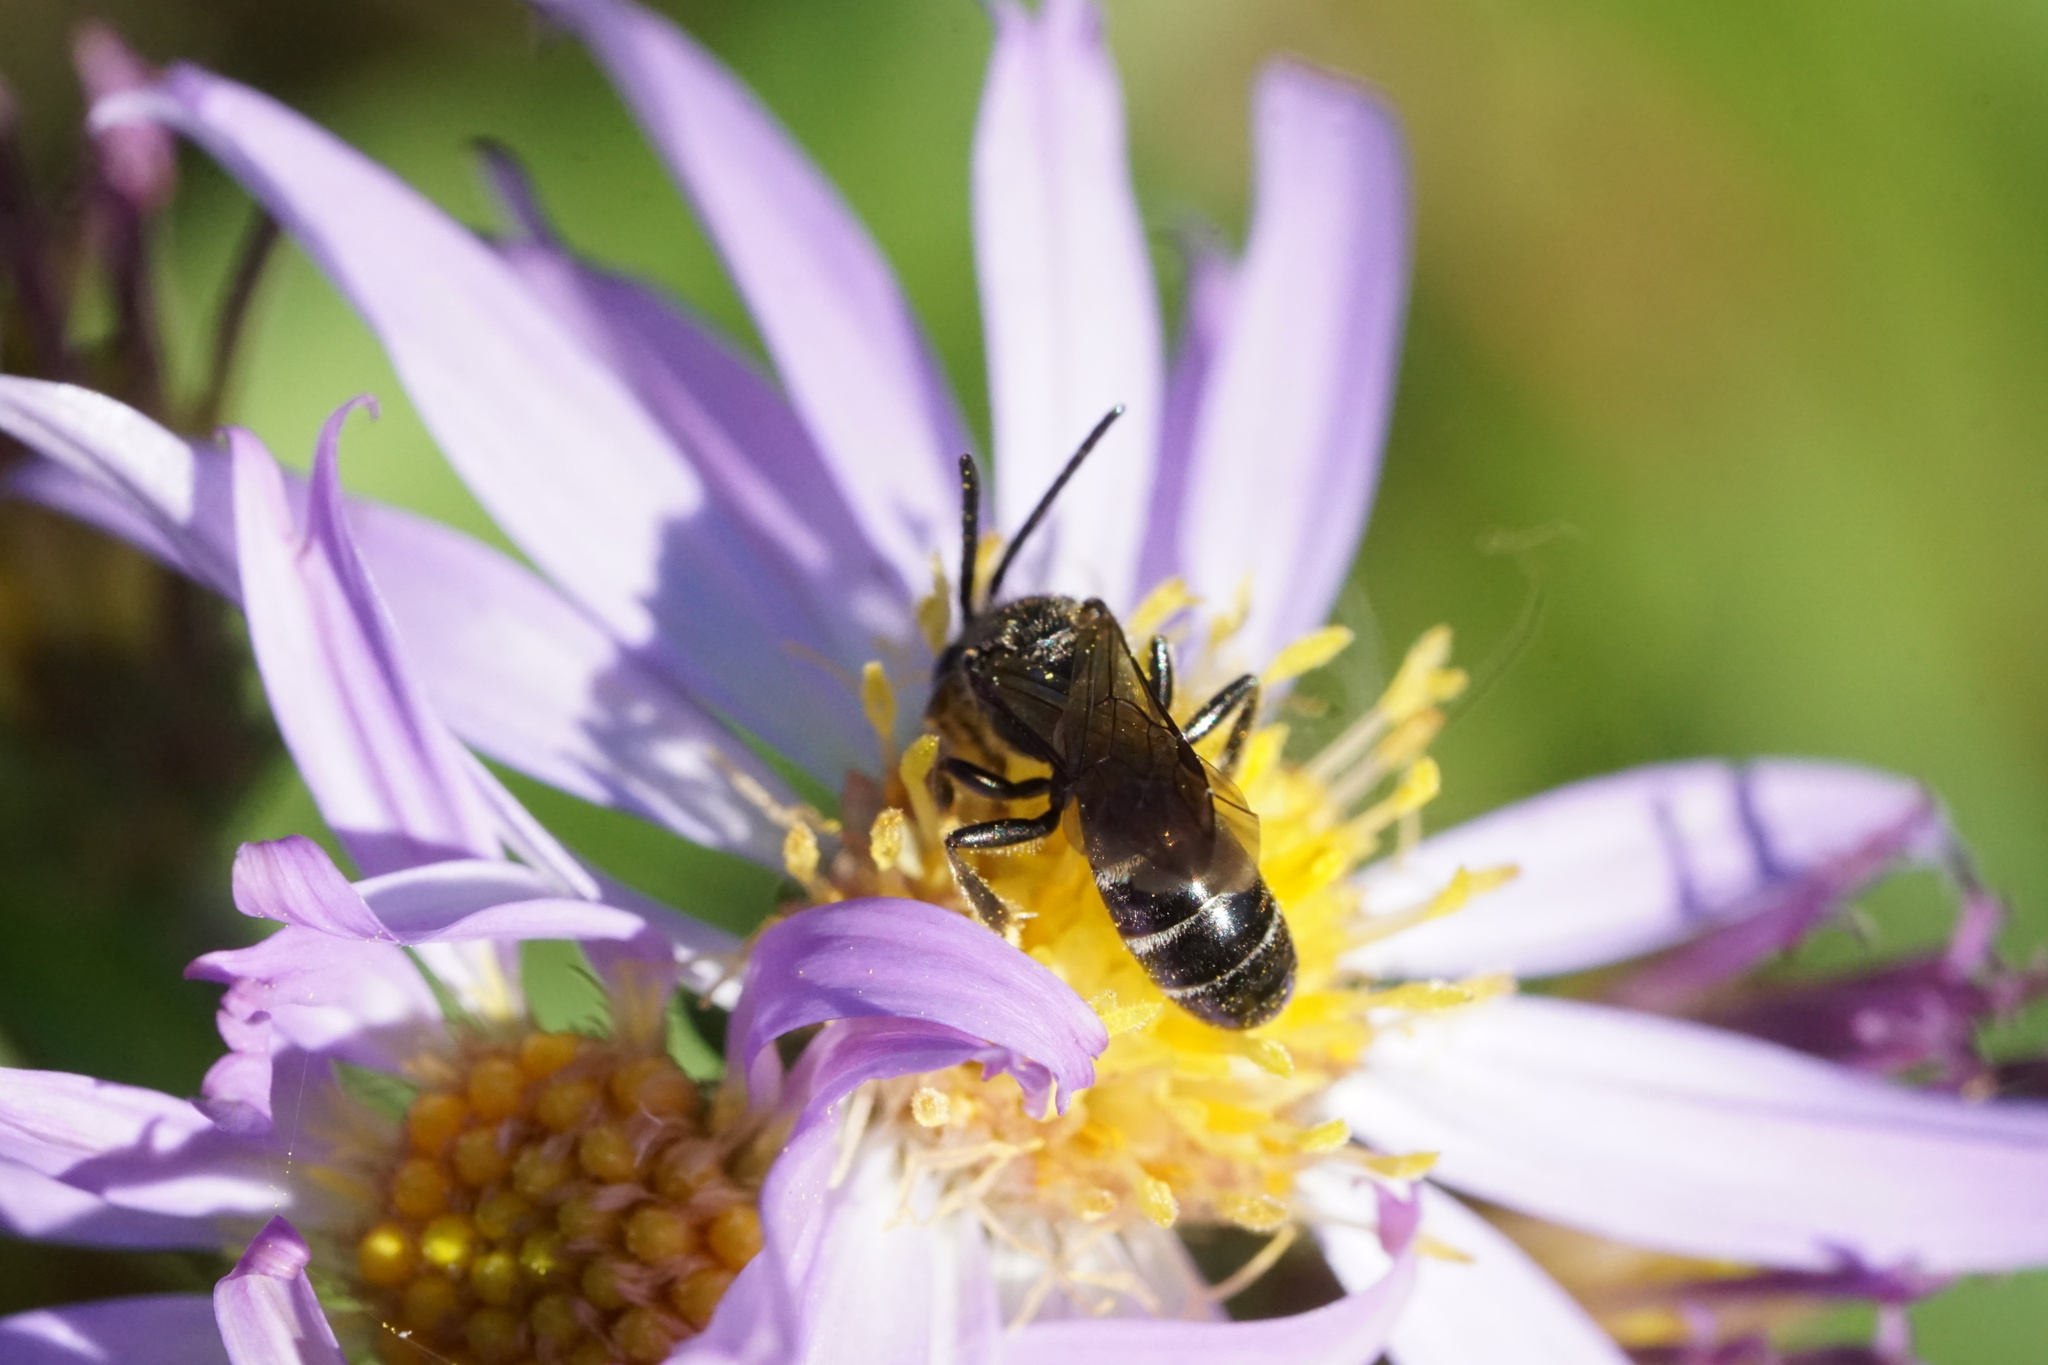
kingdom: Animalia
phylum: Arthropoda
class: Insecta
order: Hymenoptera
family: Halictidae
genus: Lasioglossum
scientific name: Lasioglossum fuscipenne
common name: Brown-winged sweat bee
